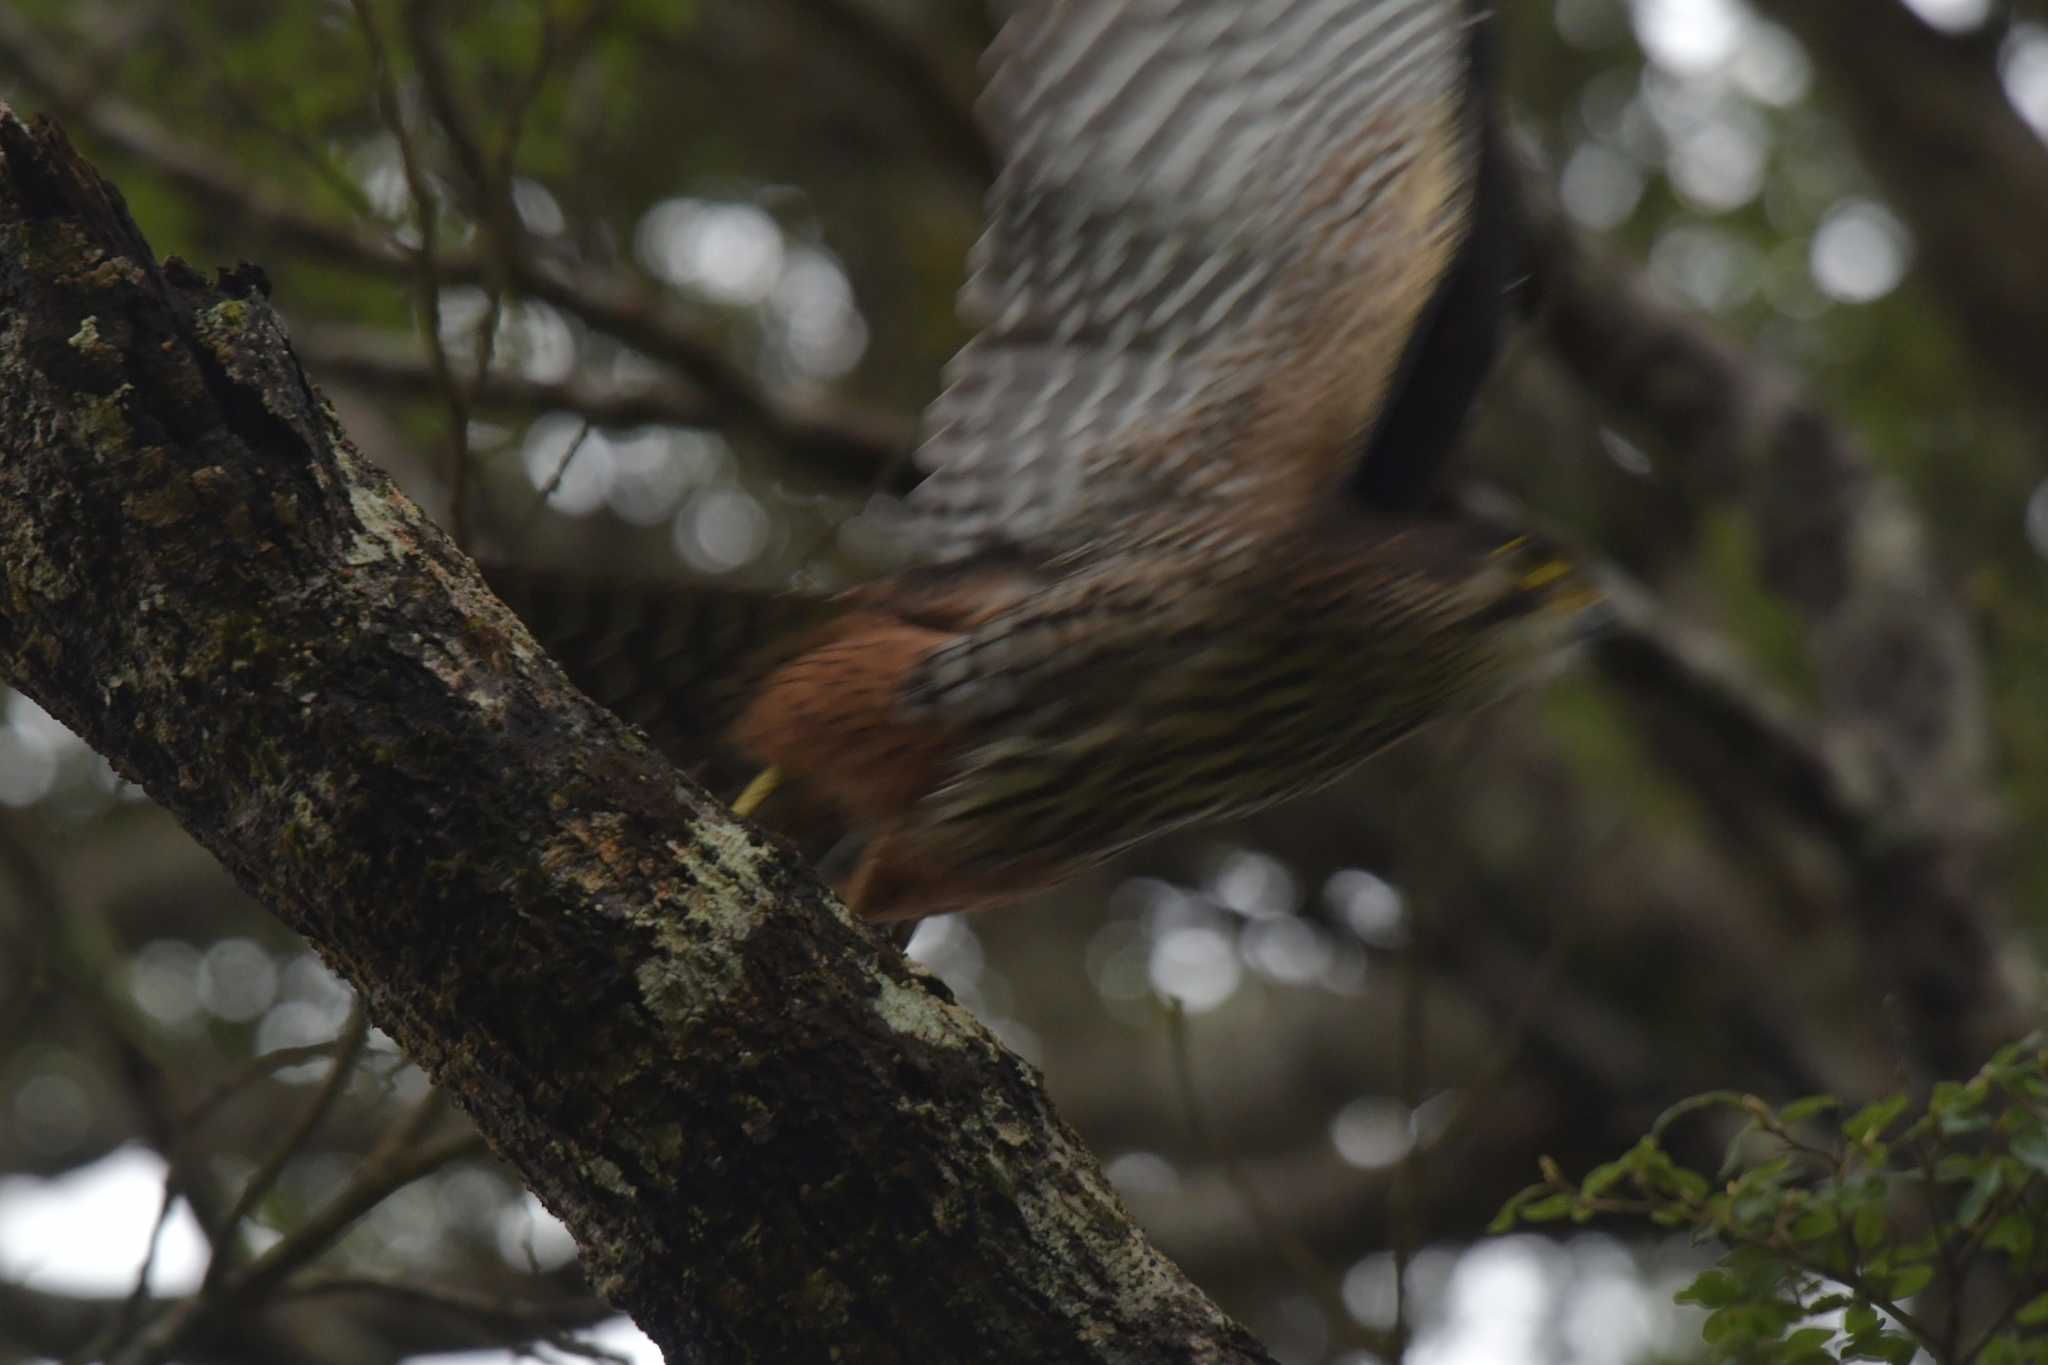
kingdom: Animalia
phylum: Chordata
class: Aves
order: Falconiformes
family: Falconidae
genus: Falco
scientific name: Falco novaeseelandiae
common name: New zealand falcon
